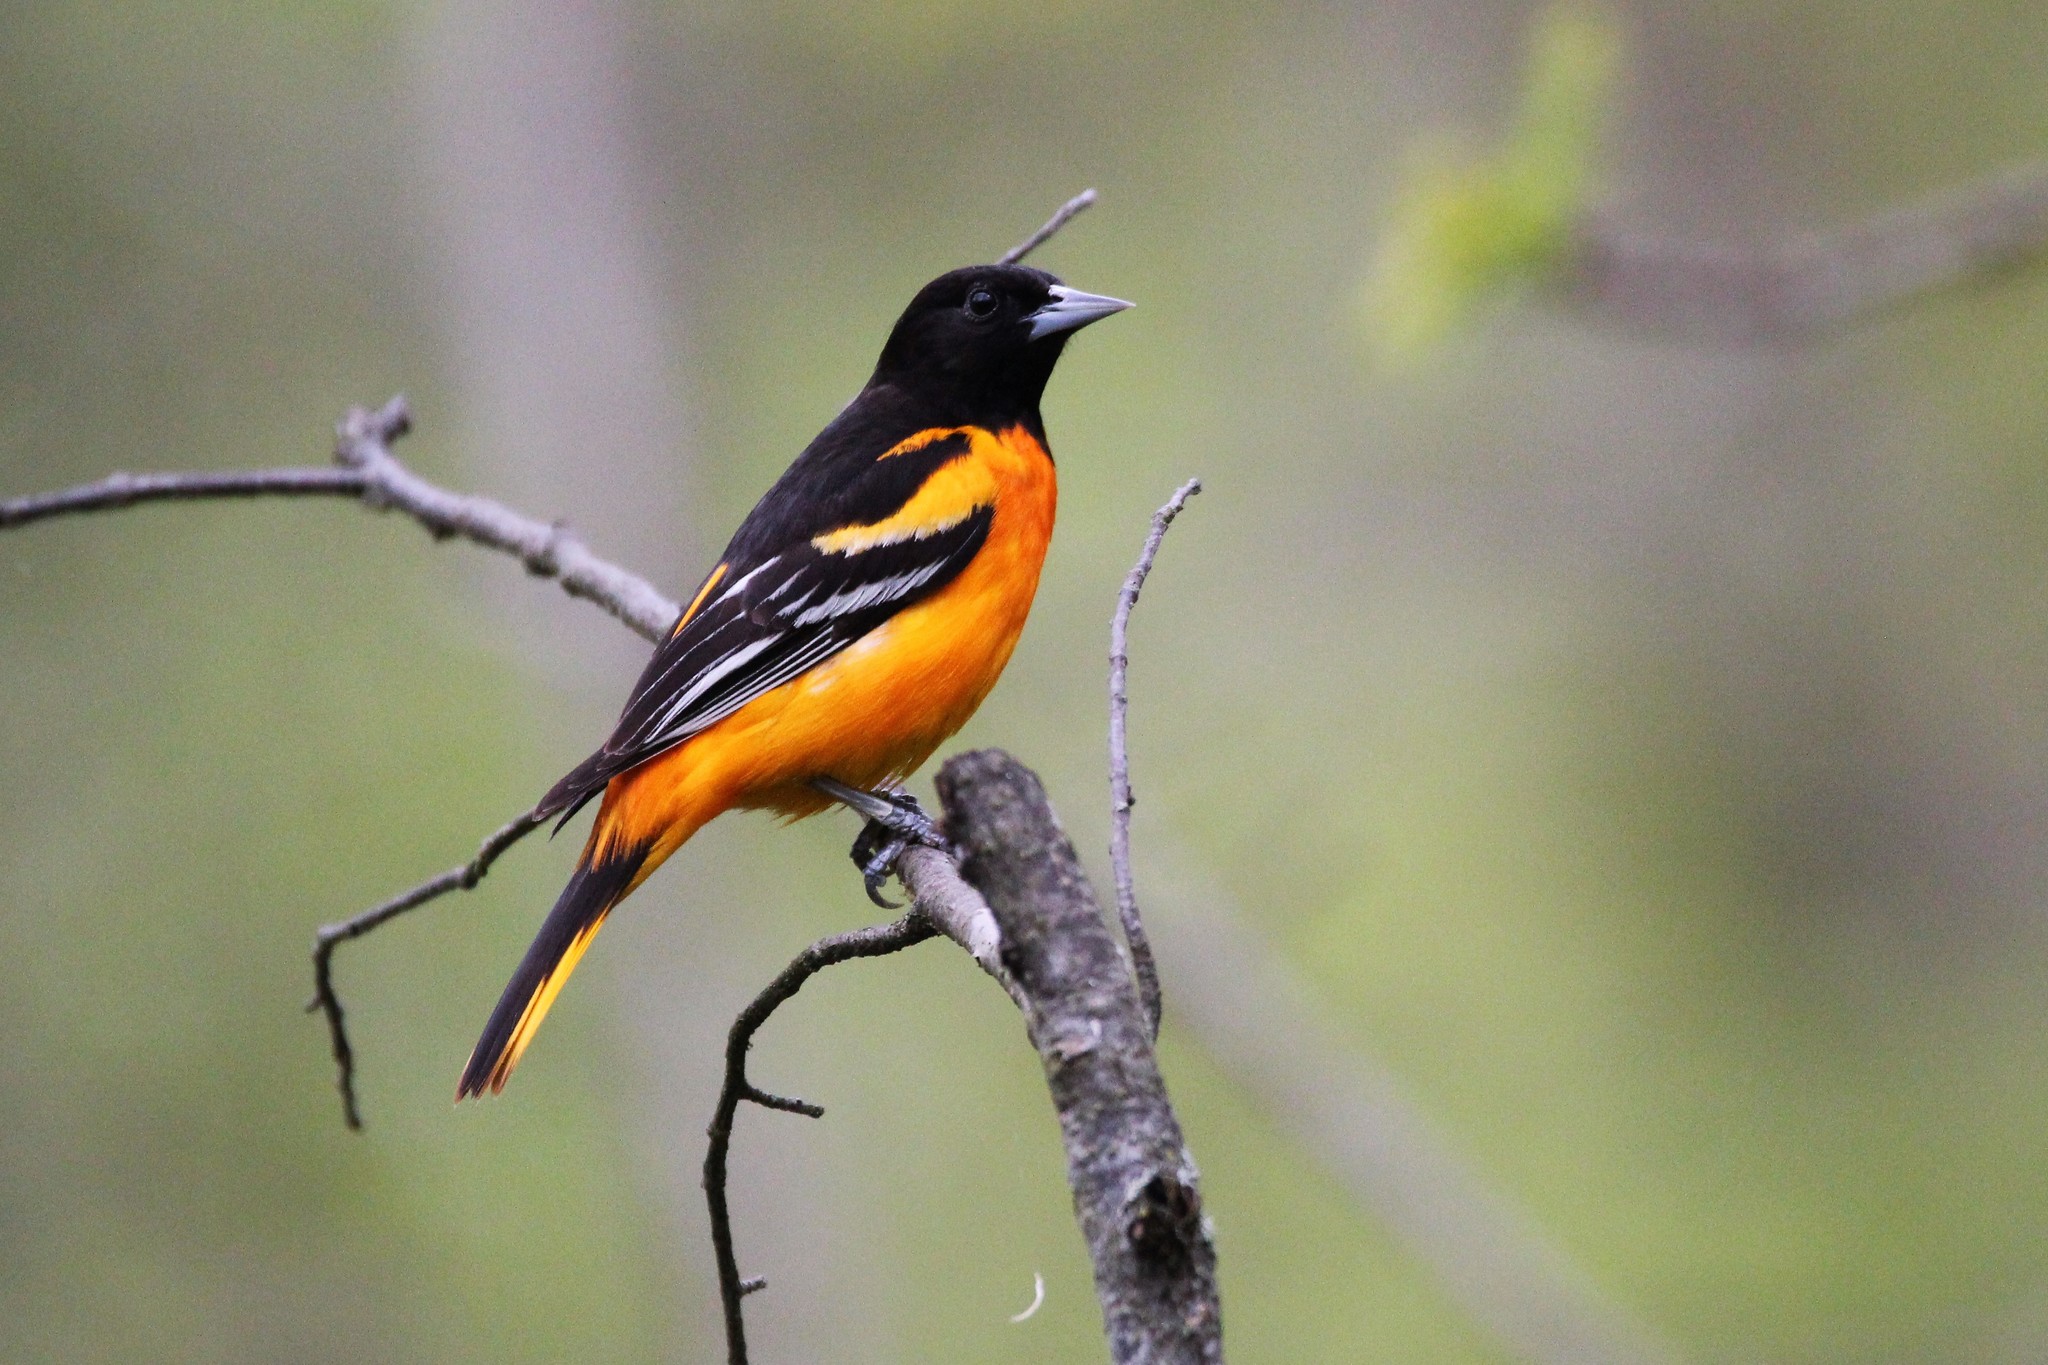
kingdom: Animalia
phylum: Chordata
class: Aves
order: Passeriformes
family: Icteridae
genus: Icterus
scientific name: Icterus galbula
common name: Baltimore oriole
